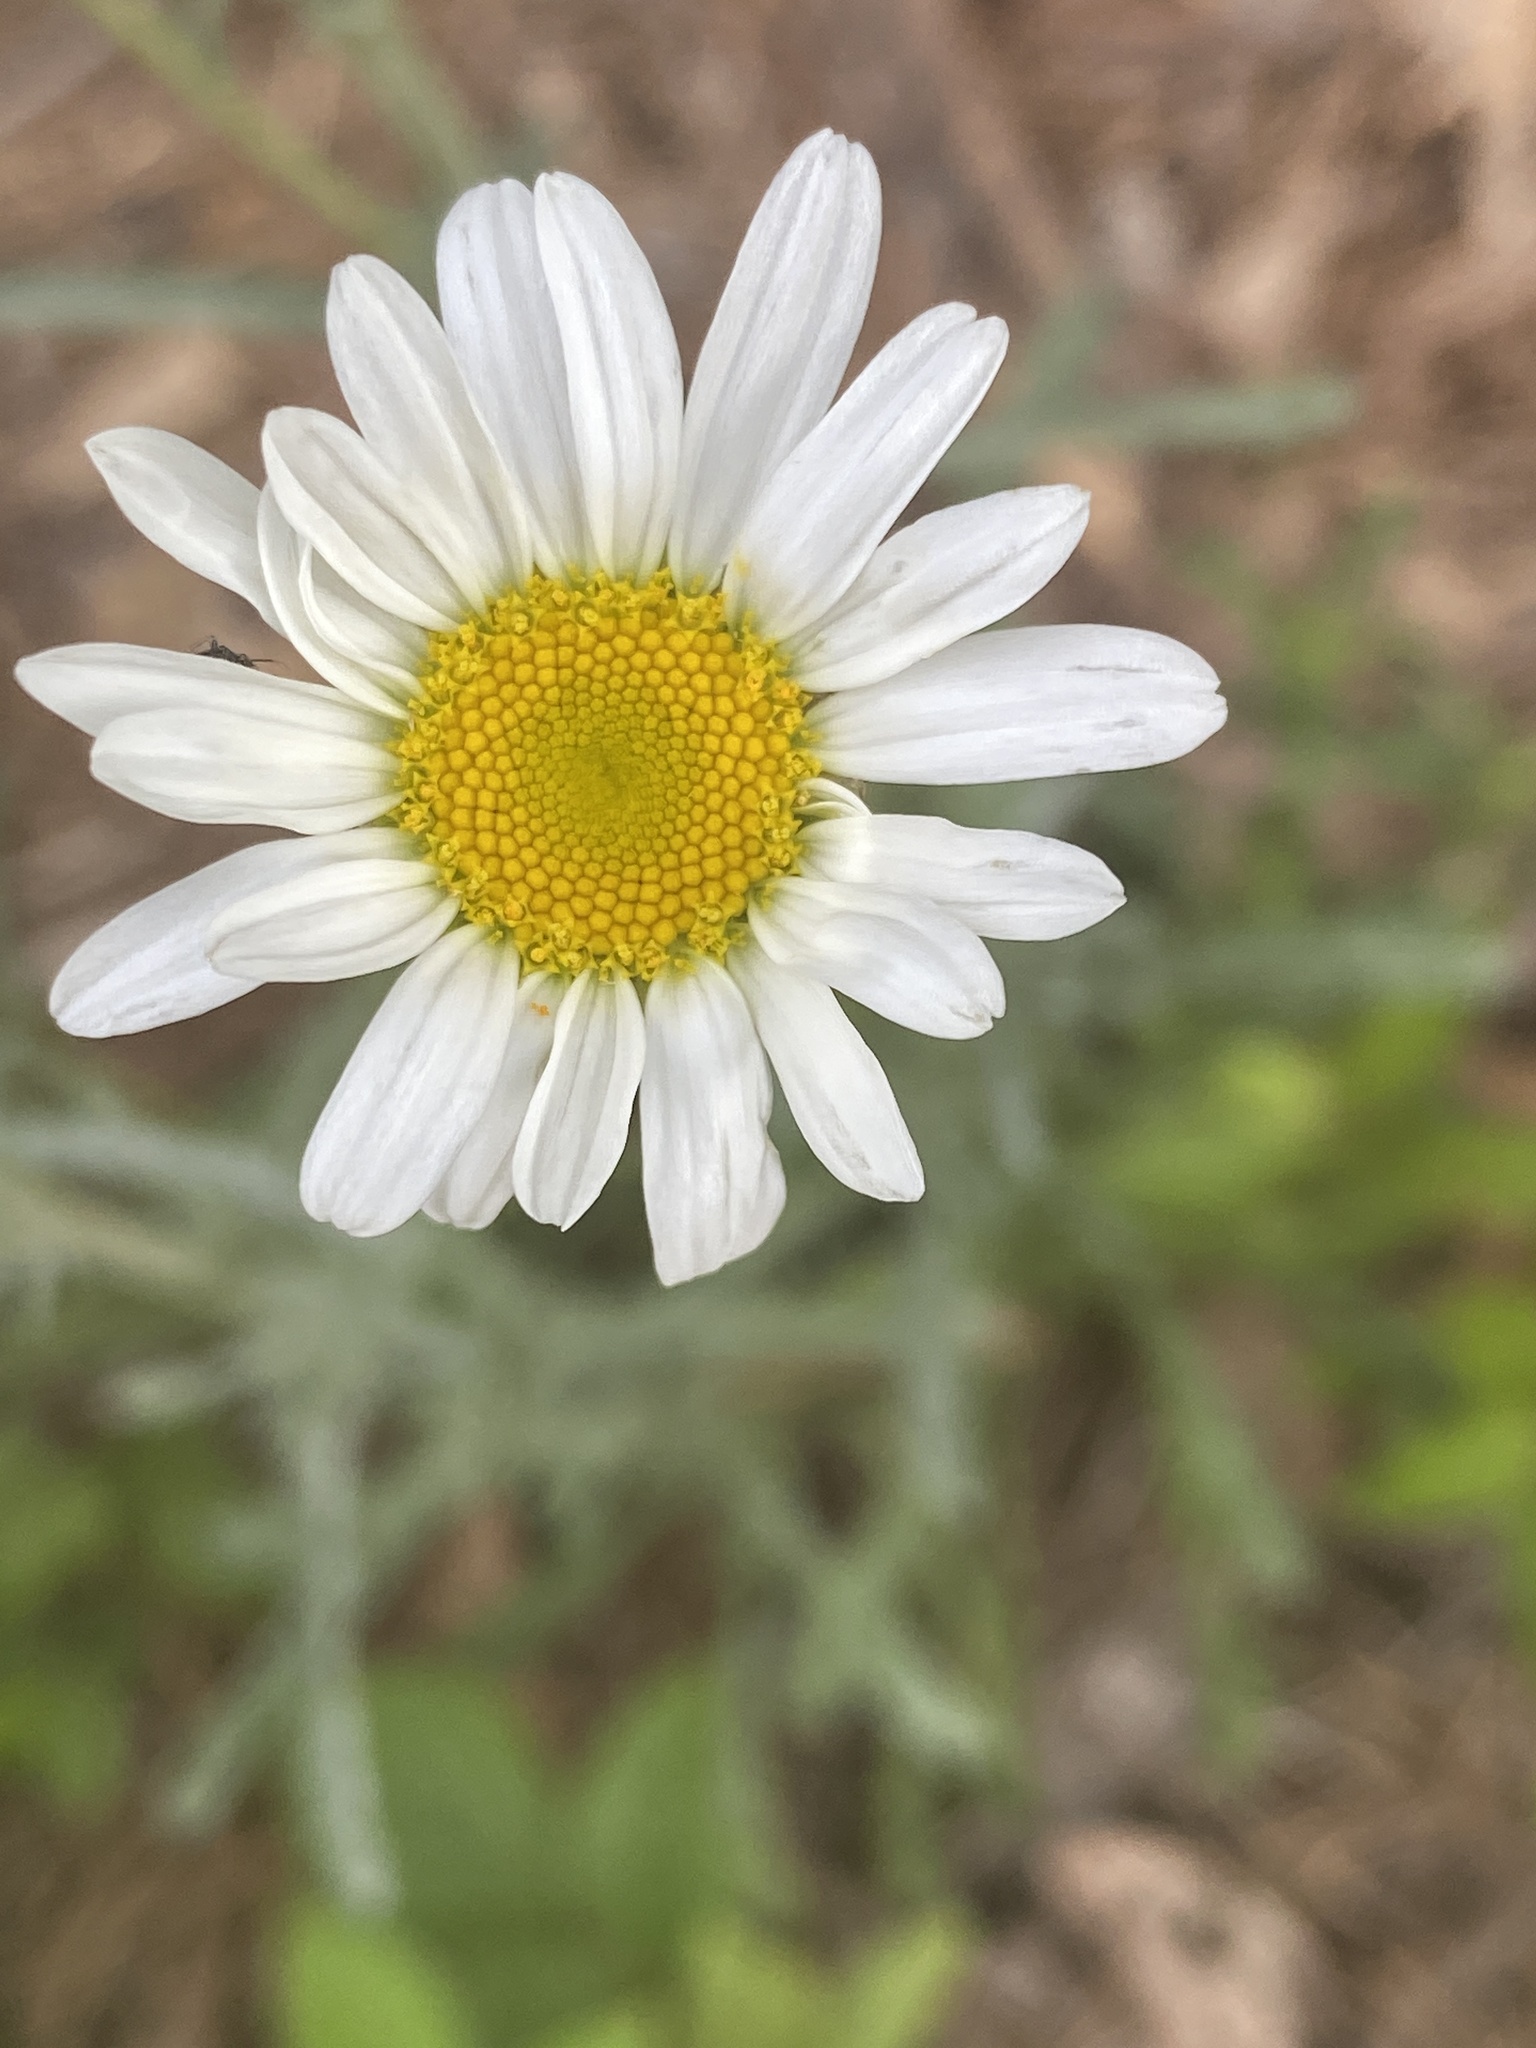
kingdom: Plantae
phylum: Tracheophyta
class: Magnoliopsida
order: Asterales
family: Asteraceae
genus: Leucanthemum
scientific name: Leucanthemum vulgare
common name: Oxeye daisy
